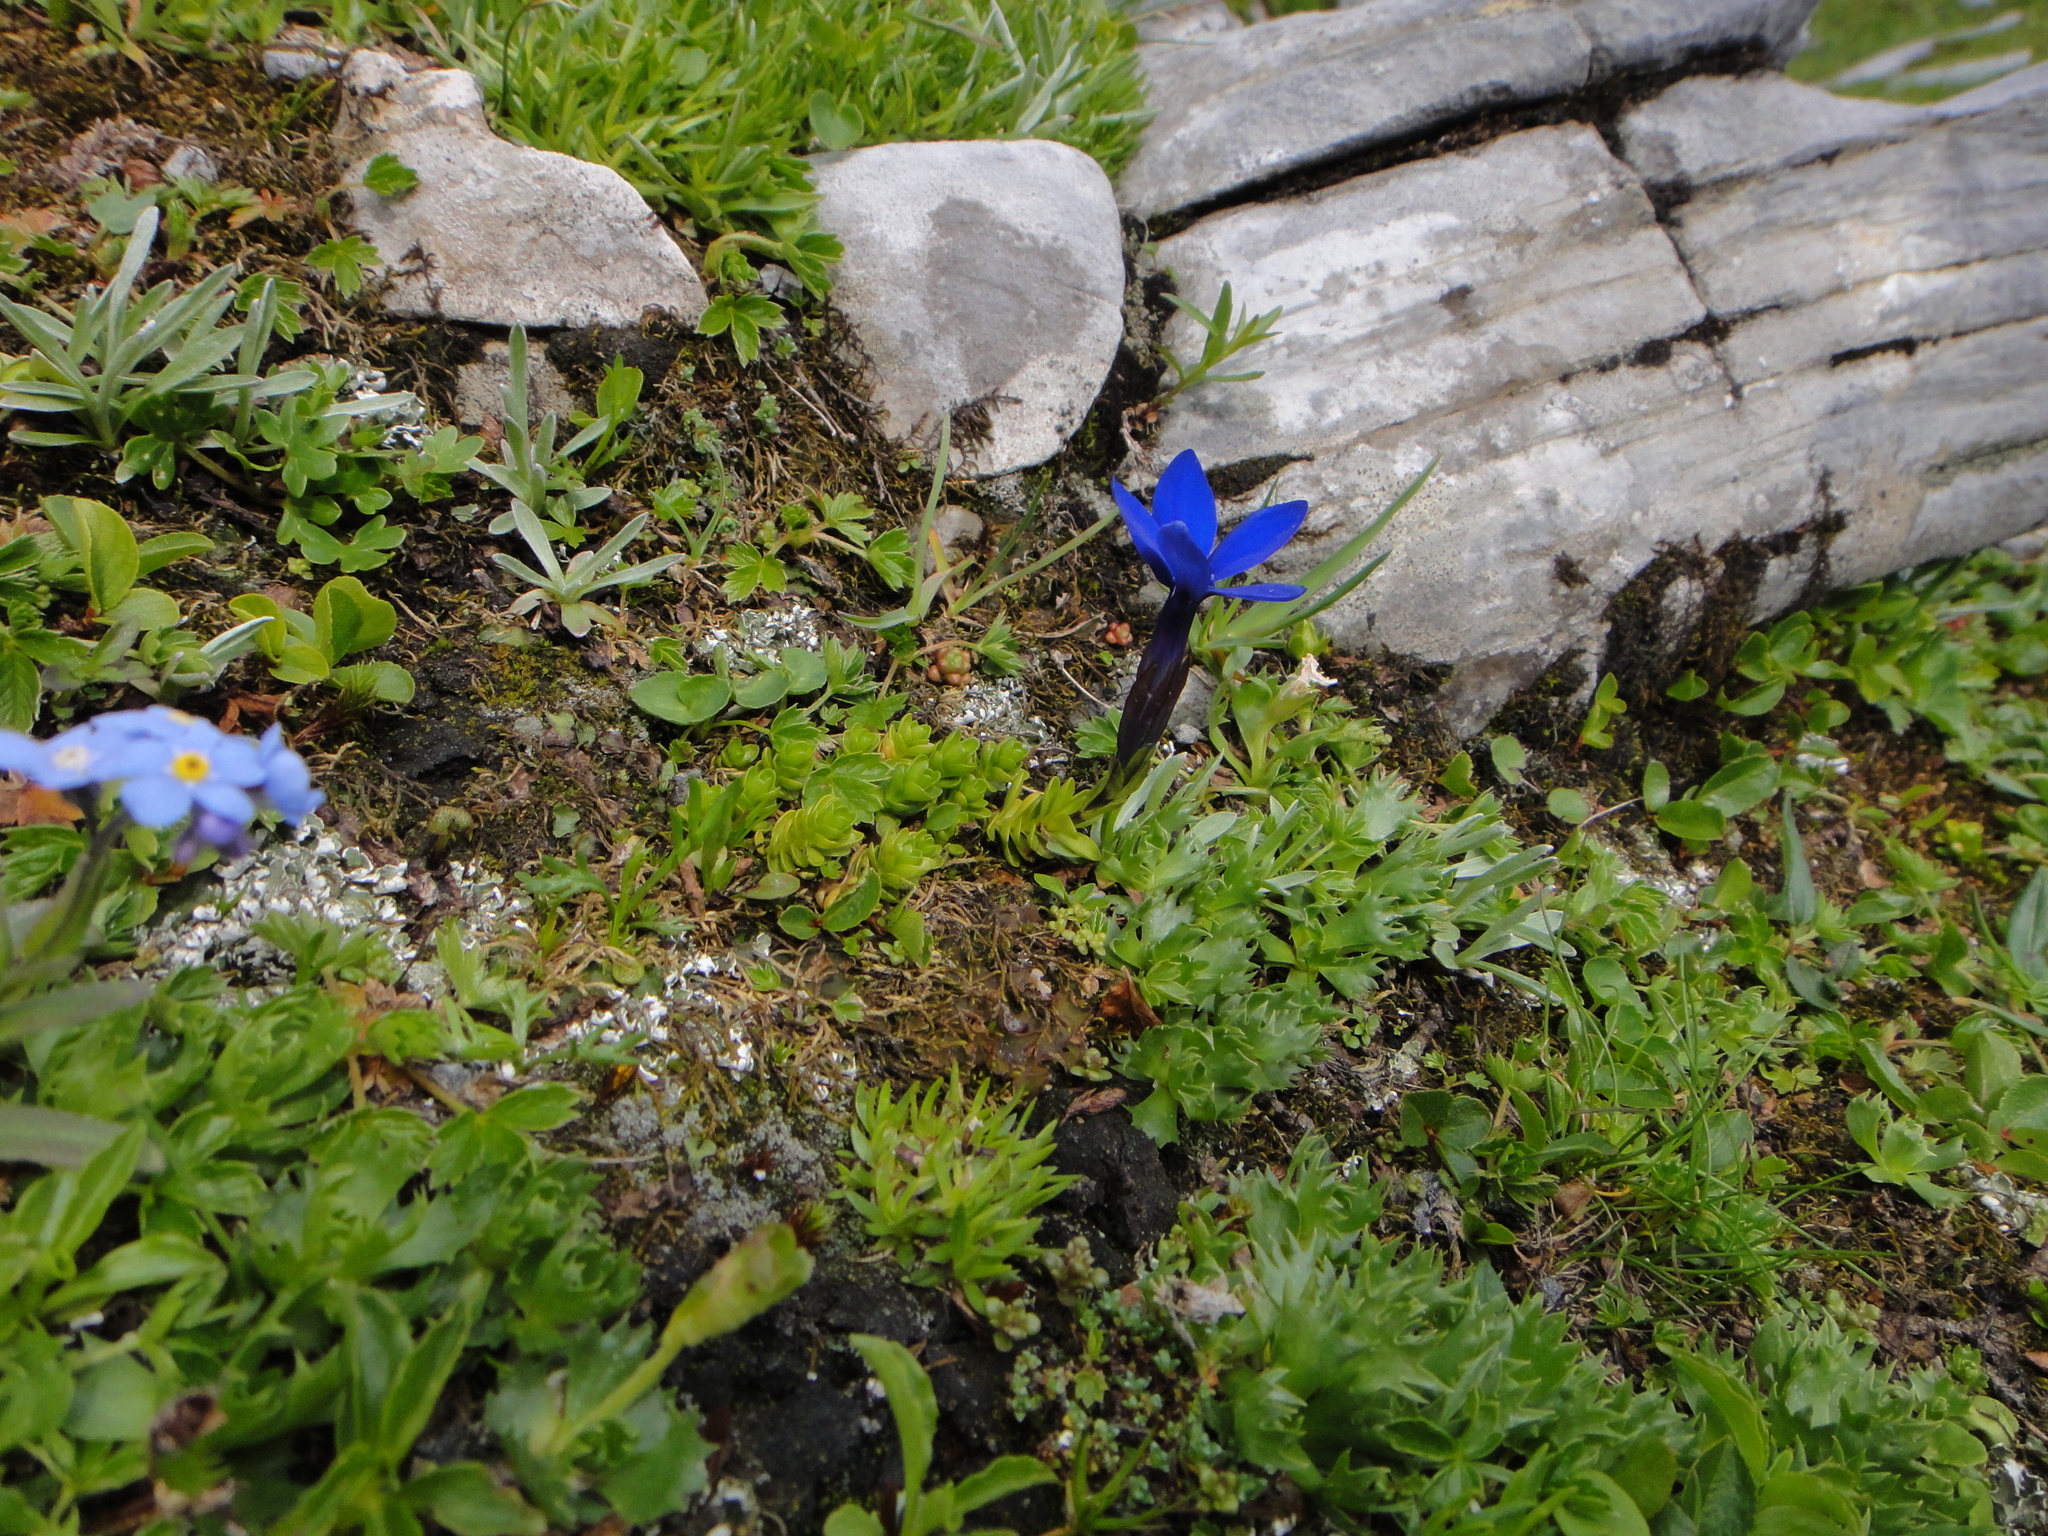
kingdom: Plantae
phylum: Tracheophyta
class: Magnoliopsida
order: Gentianales
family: Gentianaceae
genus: Gentiana
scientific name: Gentiana bavarica
